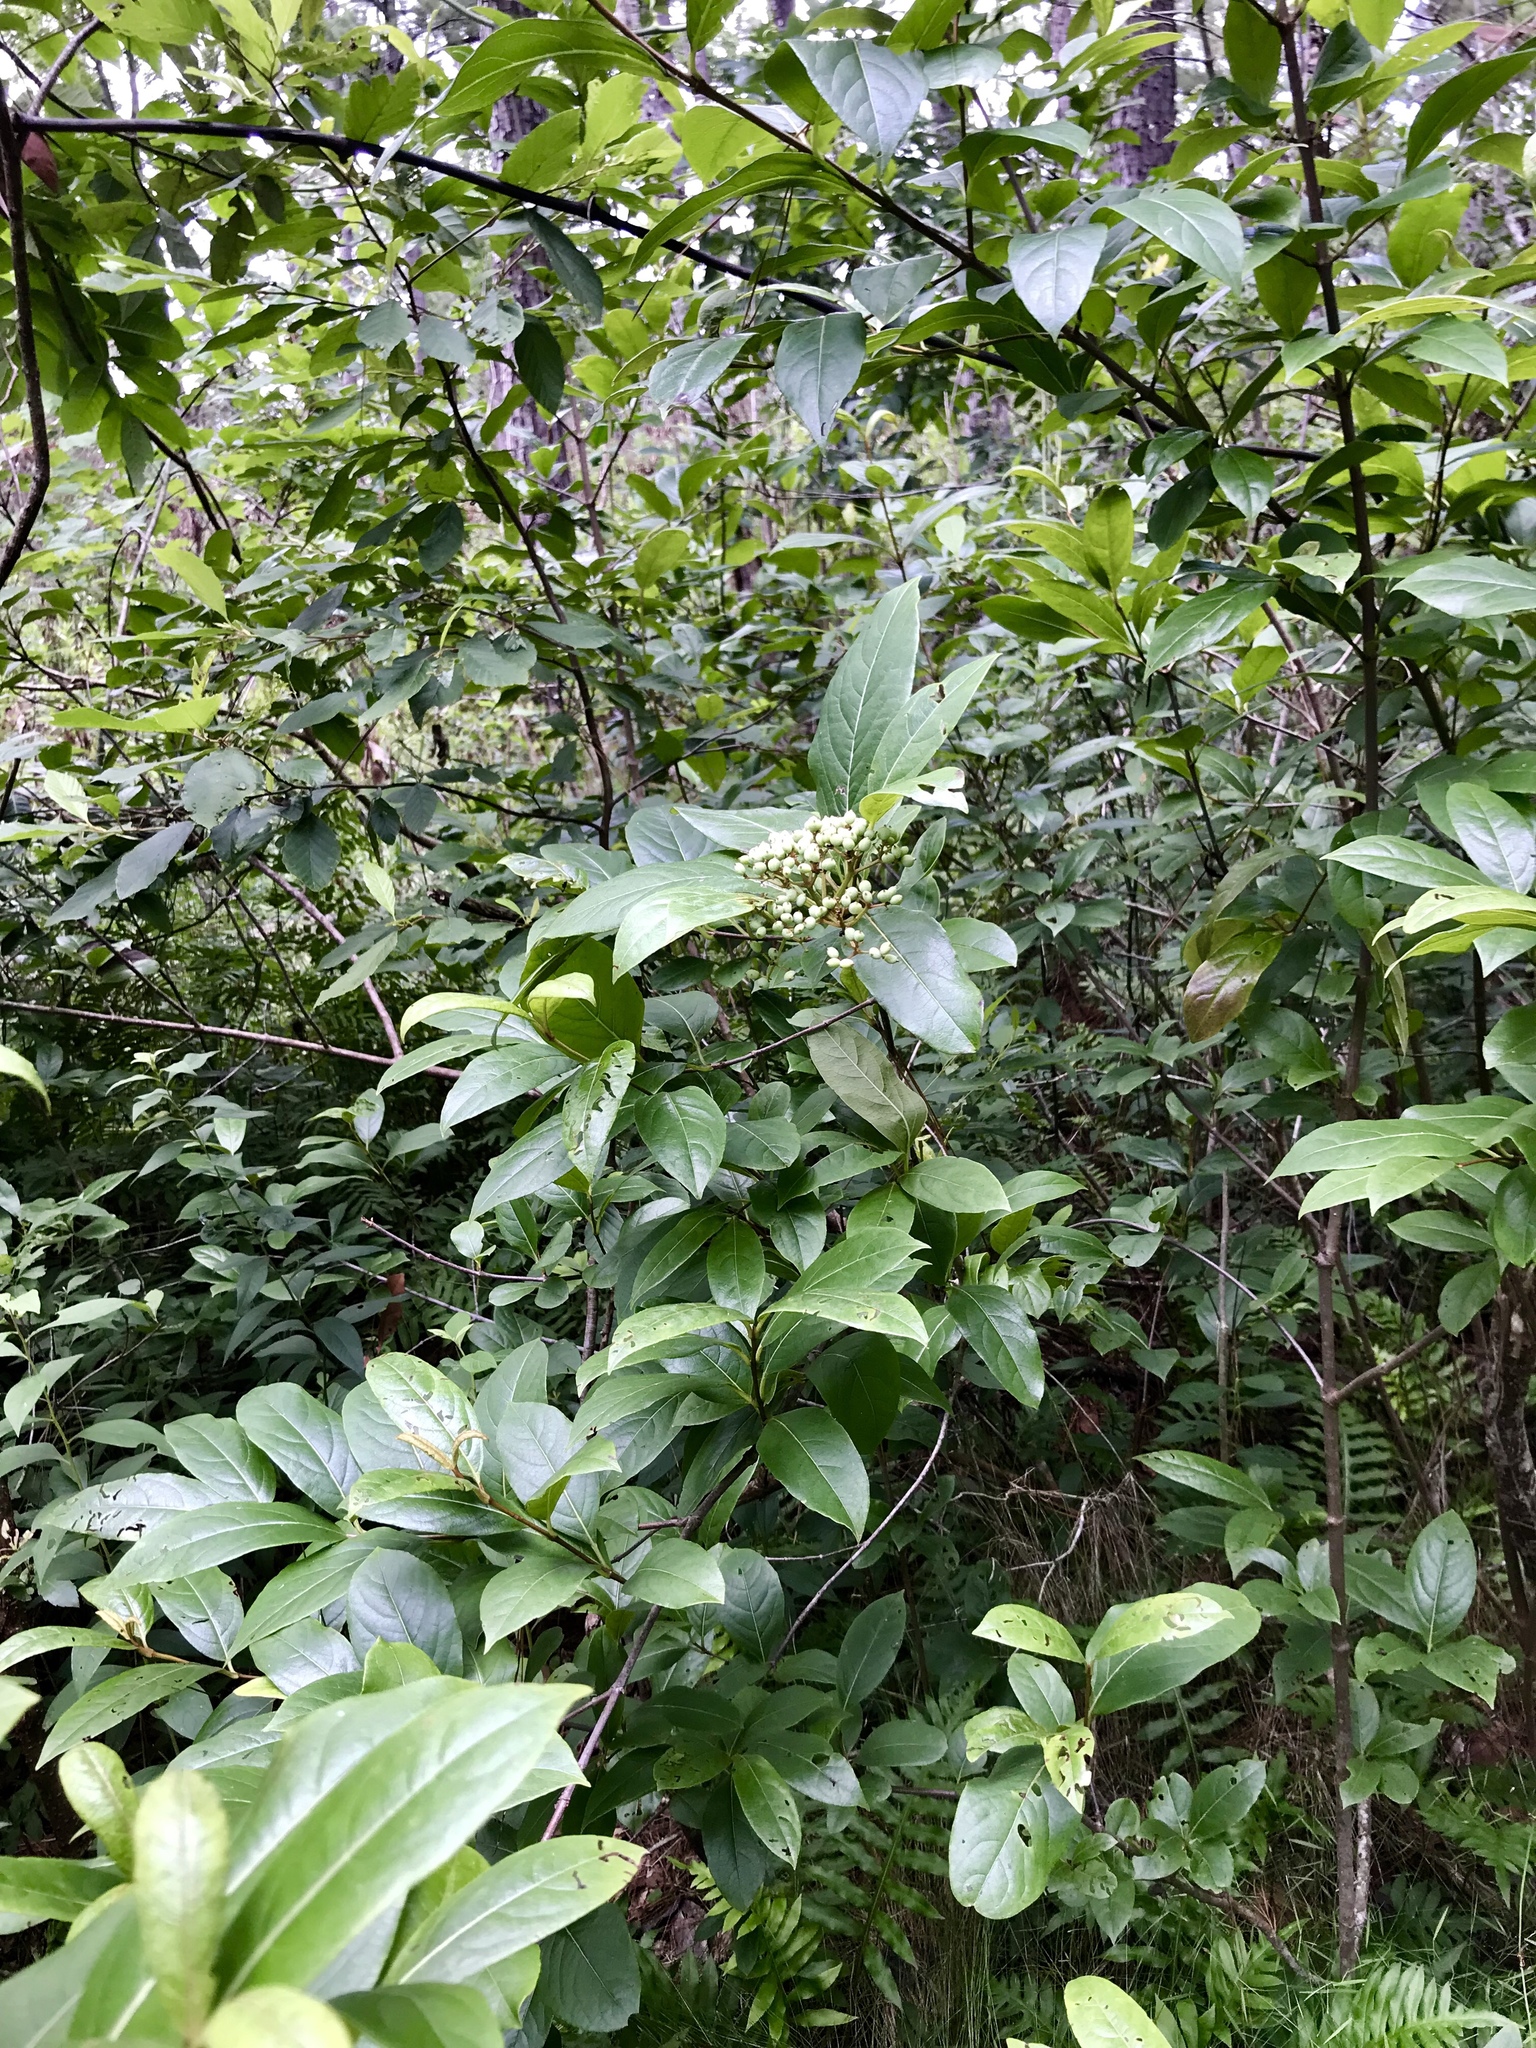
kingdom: Plantae
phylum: Tracheophyta
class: Magnoliopsida
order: Dipsacales
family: Viburnaceae
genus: Viburnum
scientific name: Viburnum nudum
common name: Possum haw
